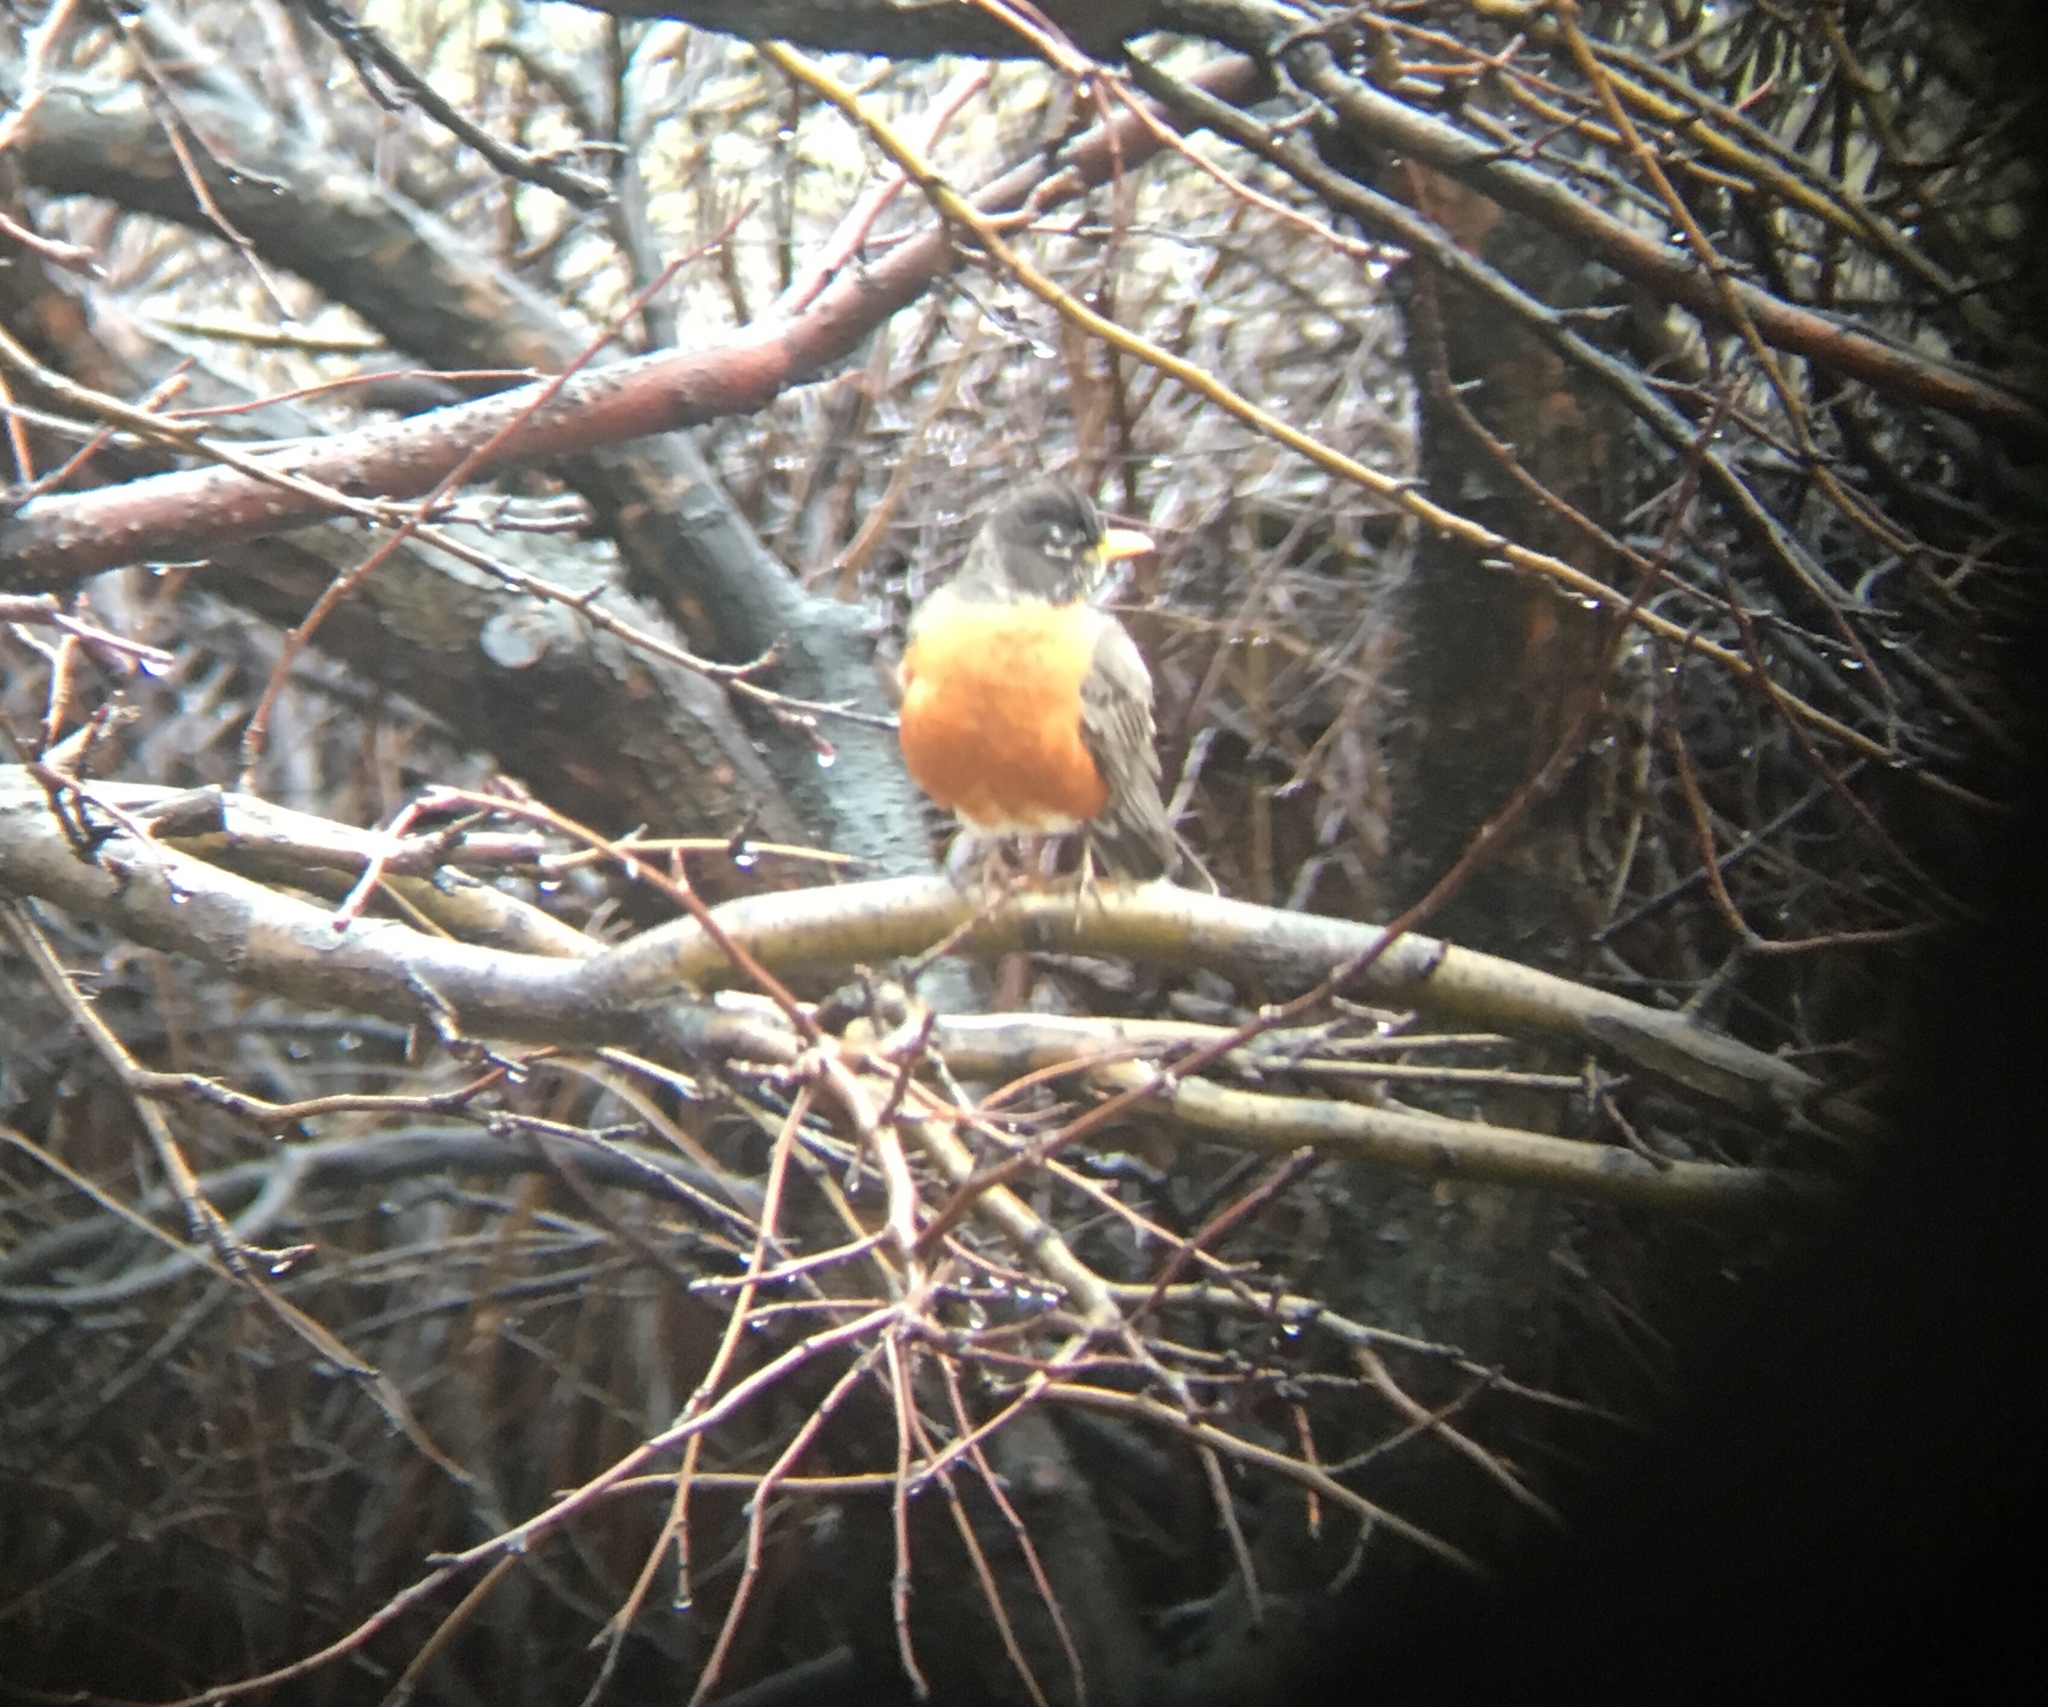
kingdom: Animalia
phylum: Chordata
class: Aves
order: Passeriformes
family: Turdidae
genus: Turdus
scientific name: Turdus migratorius
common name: American robin
